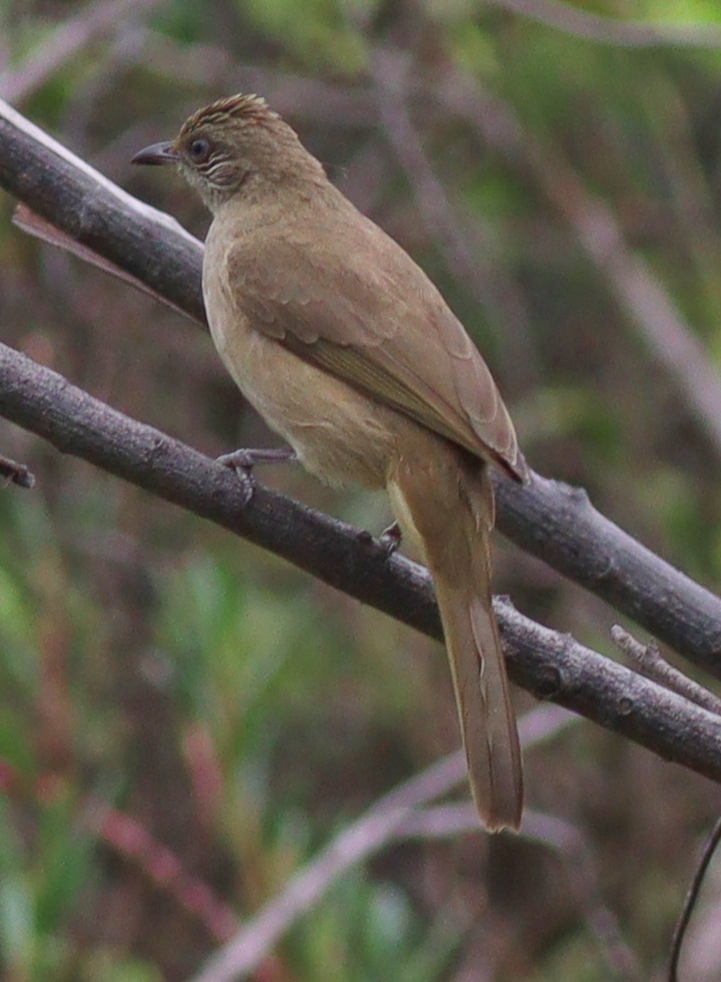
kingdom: Animalia
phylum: Chordata
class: Aves
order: Passeriformes
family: Pycnonotidae
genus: Pycnonotus
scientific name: Pycnonotus blanfordi
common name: Streak-eared bulbul
